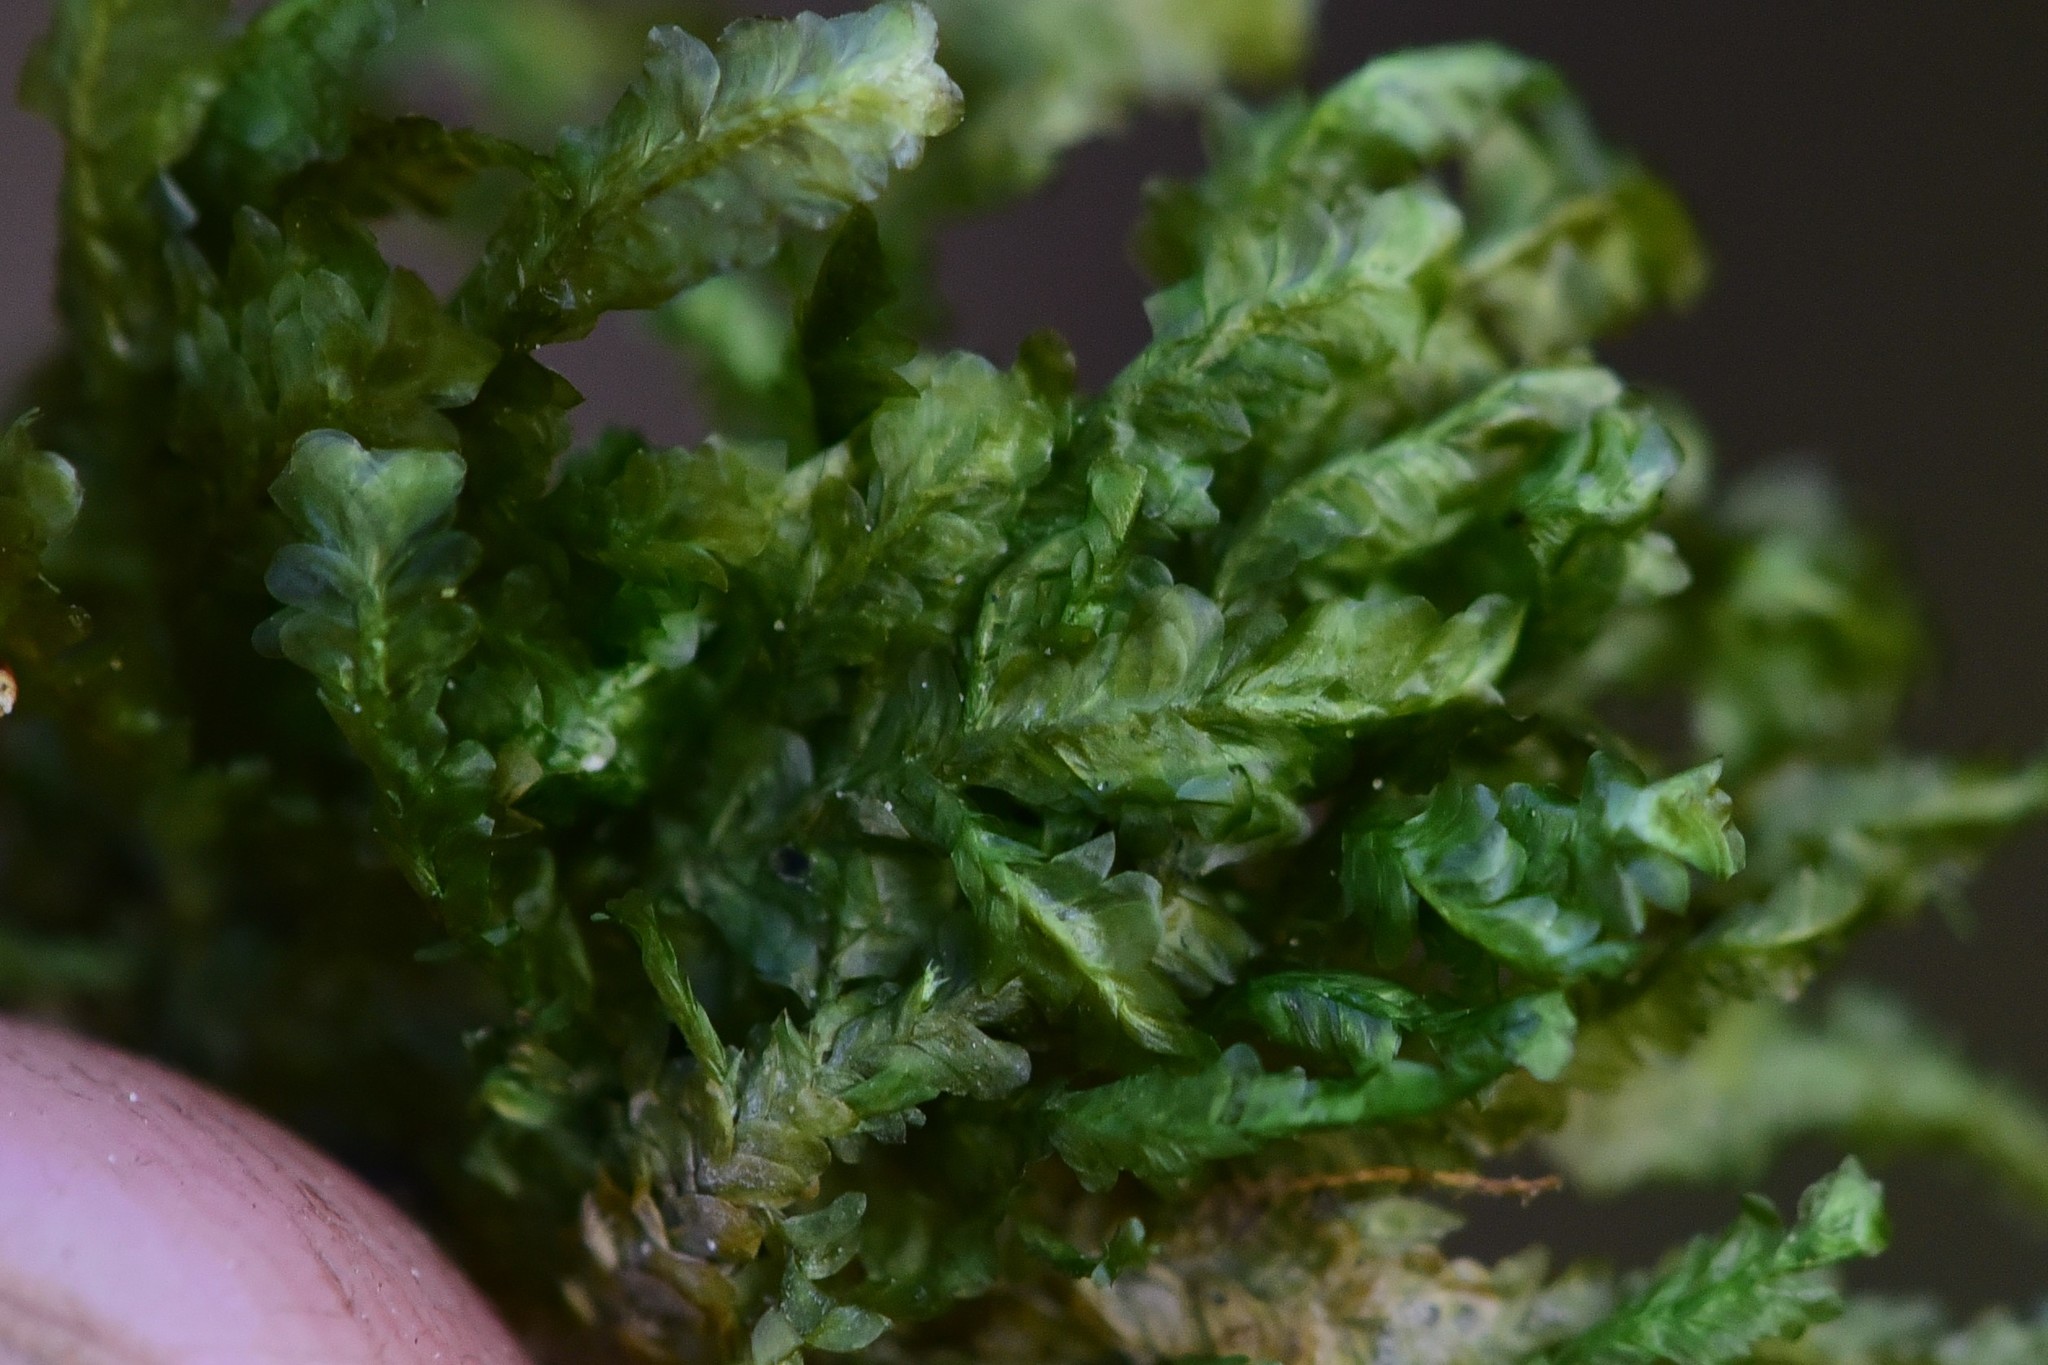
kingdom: Plantae
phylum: Bryophyta
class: Bryopsida
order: Hypnales
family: Neckeraceae
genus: Homalia
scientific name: Homalia trichomanoides
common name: Lime homalia moss
